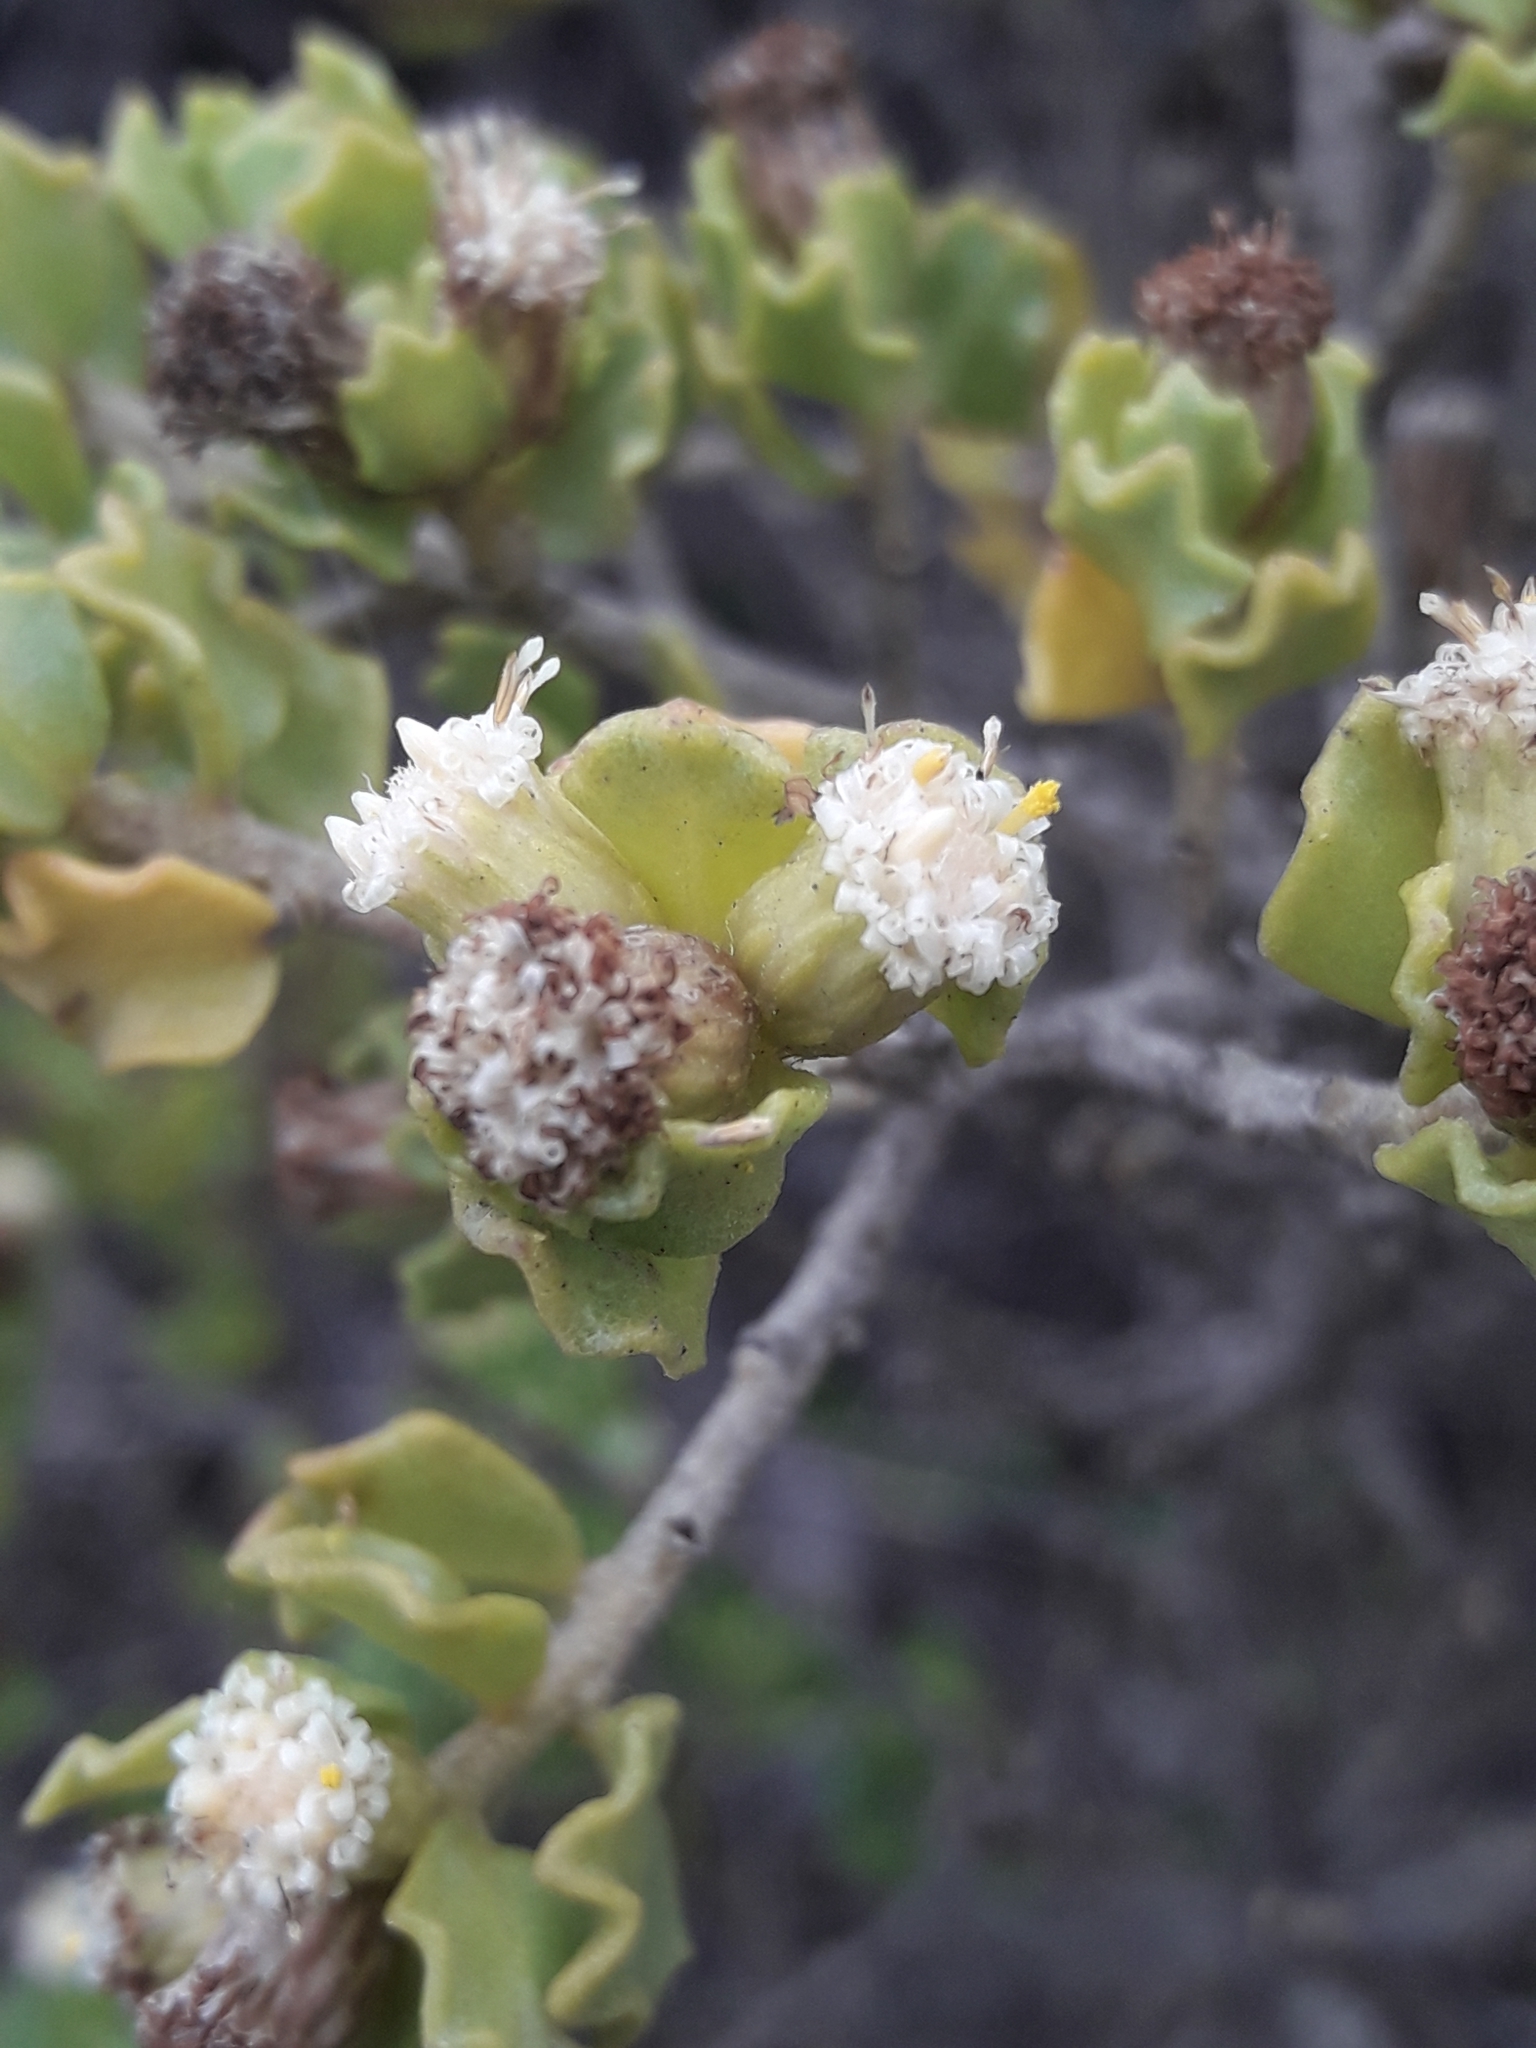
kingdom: Plantae
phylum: Tracheophyta
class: Magnoliopsida
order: Asterales
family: Asteraceae
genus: Baccharis
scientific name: Baccharis macraei
